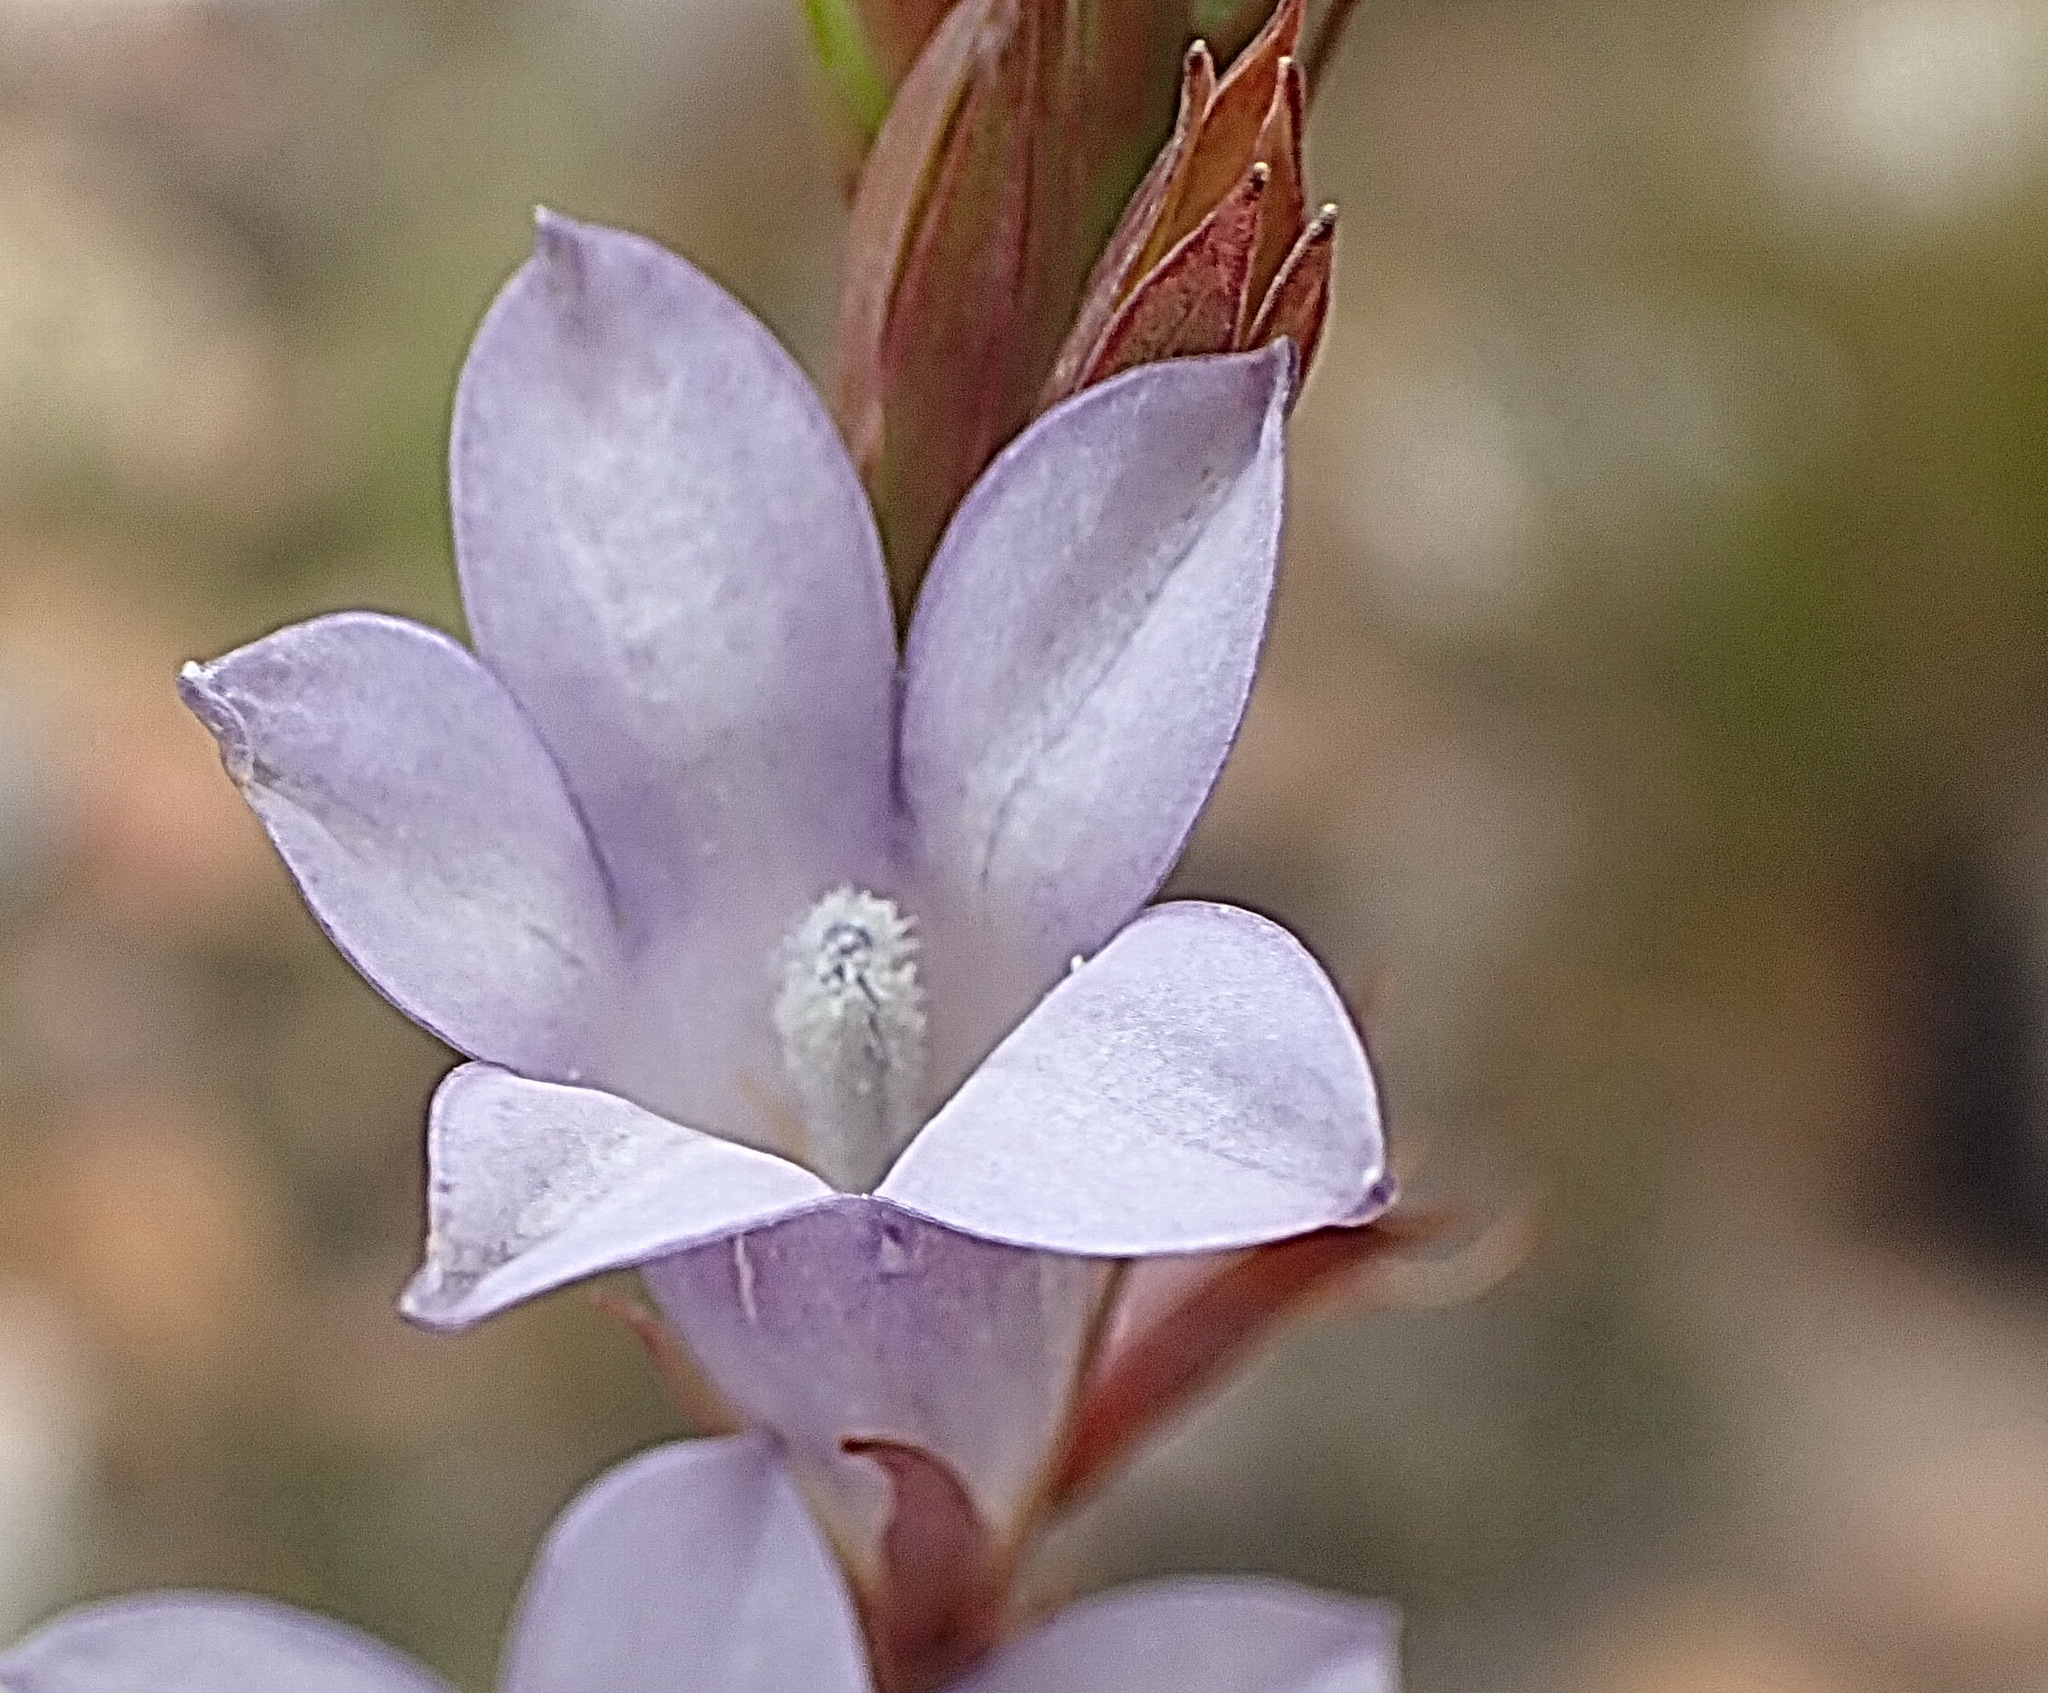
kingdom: Plantae
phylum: Tracheophyta
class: Magnoliopsida
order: Asterales
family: Campanulaceae
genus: Prismatocarpus
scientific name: Prismatocarpus candolleanus
